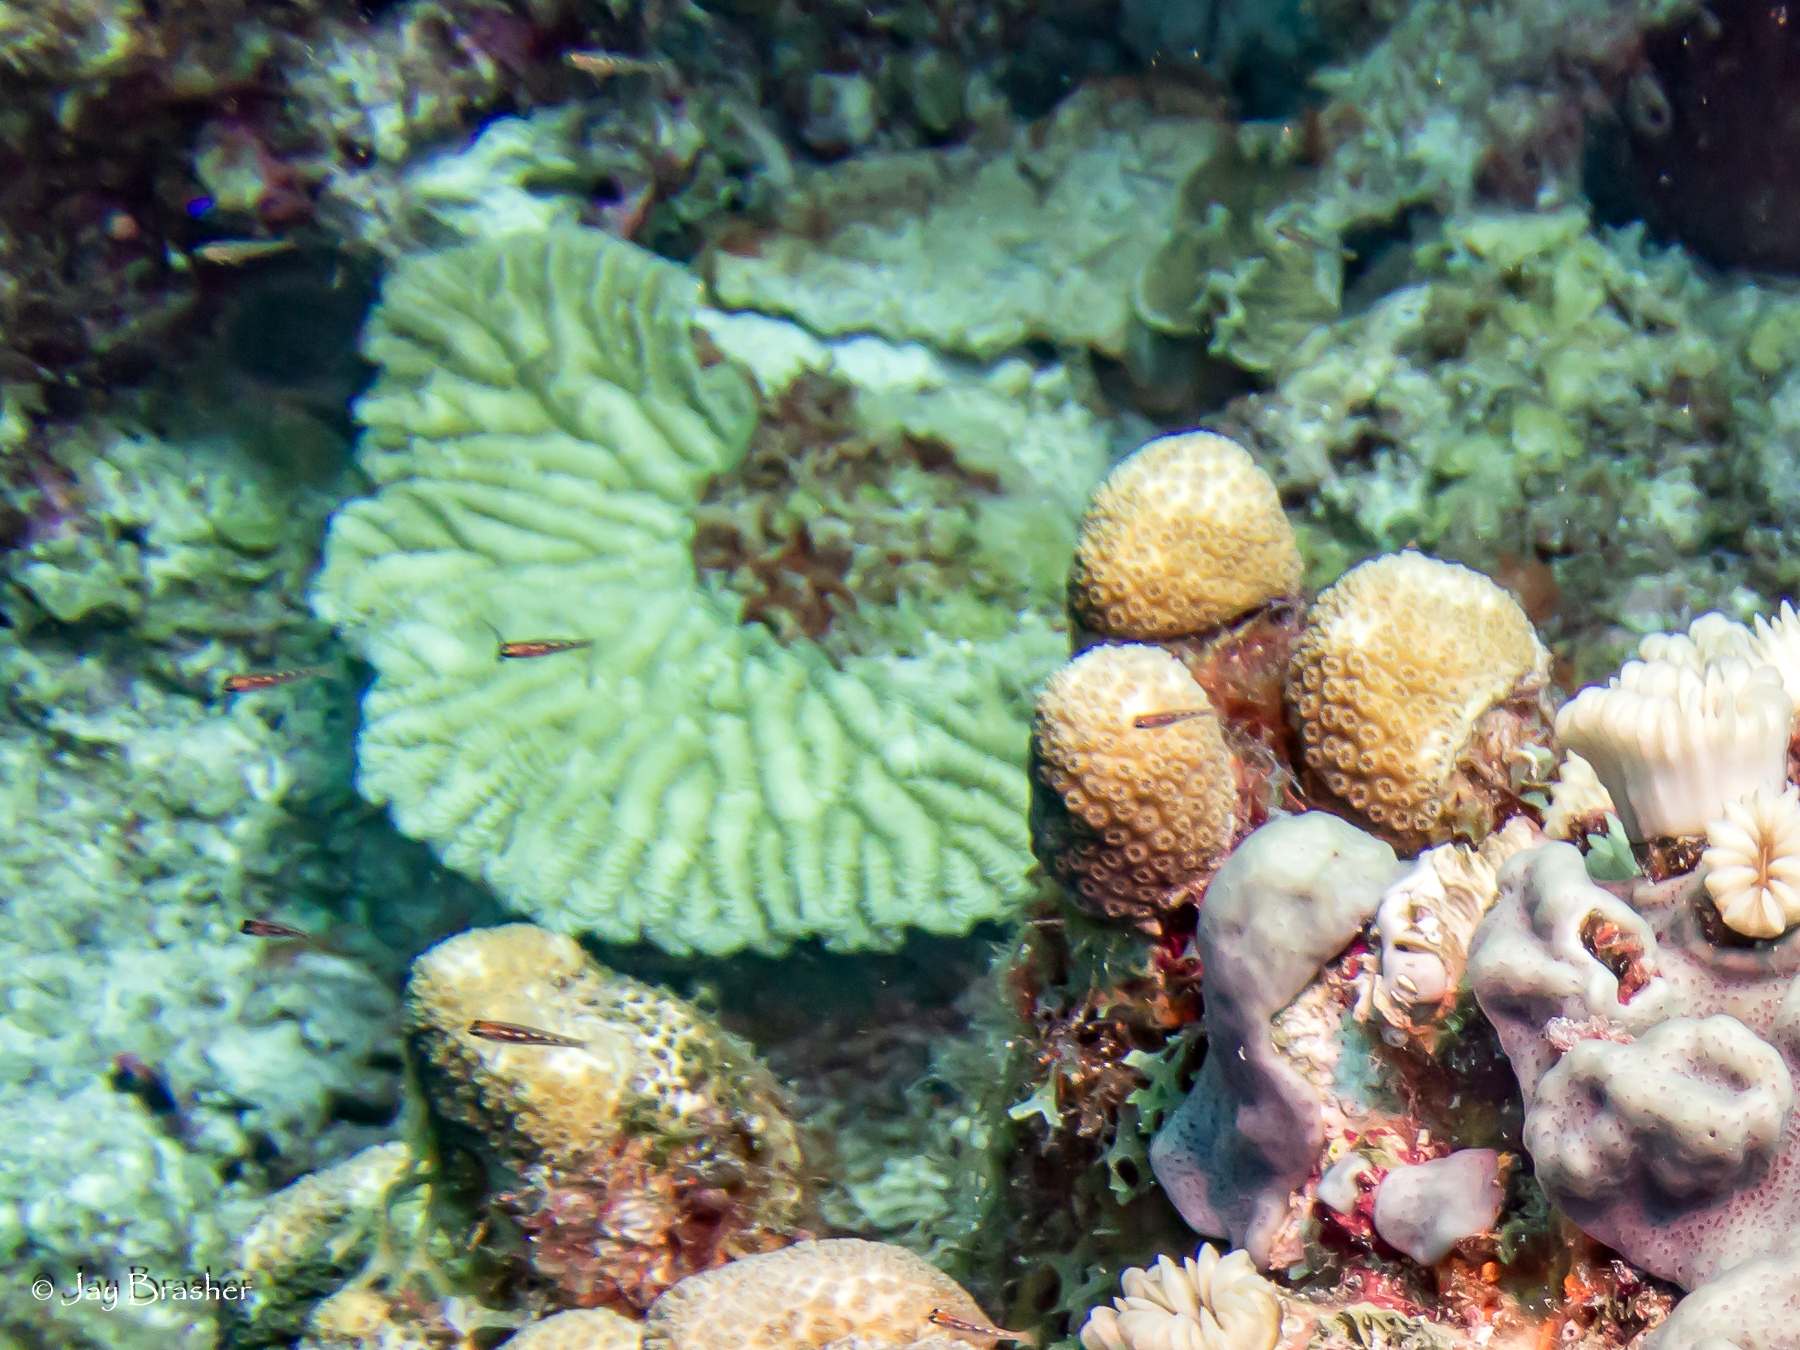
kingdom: Animalia
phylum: Cnidaria
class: Anthozoa
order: Scleractinia
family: Meandrinidae
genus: Meandrina
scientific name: Meandrina meandrites
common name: Maze coral
